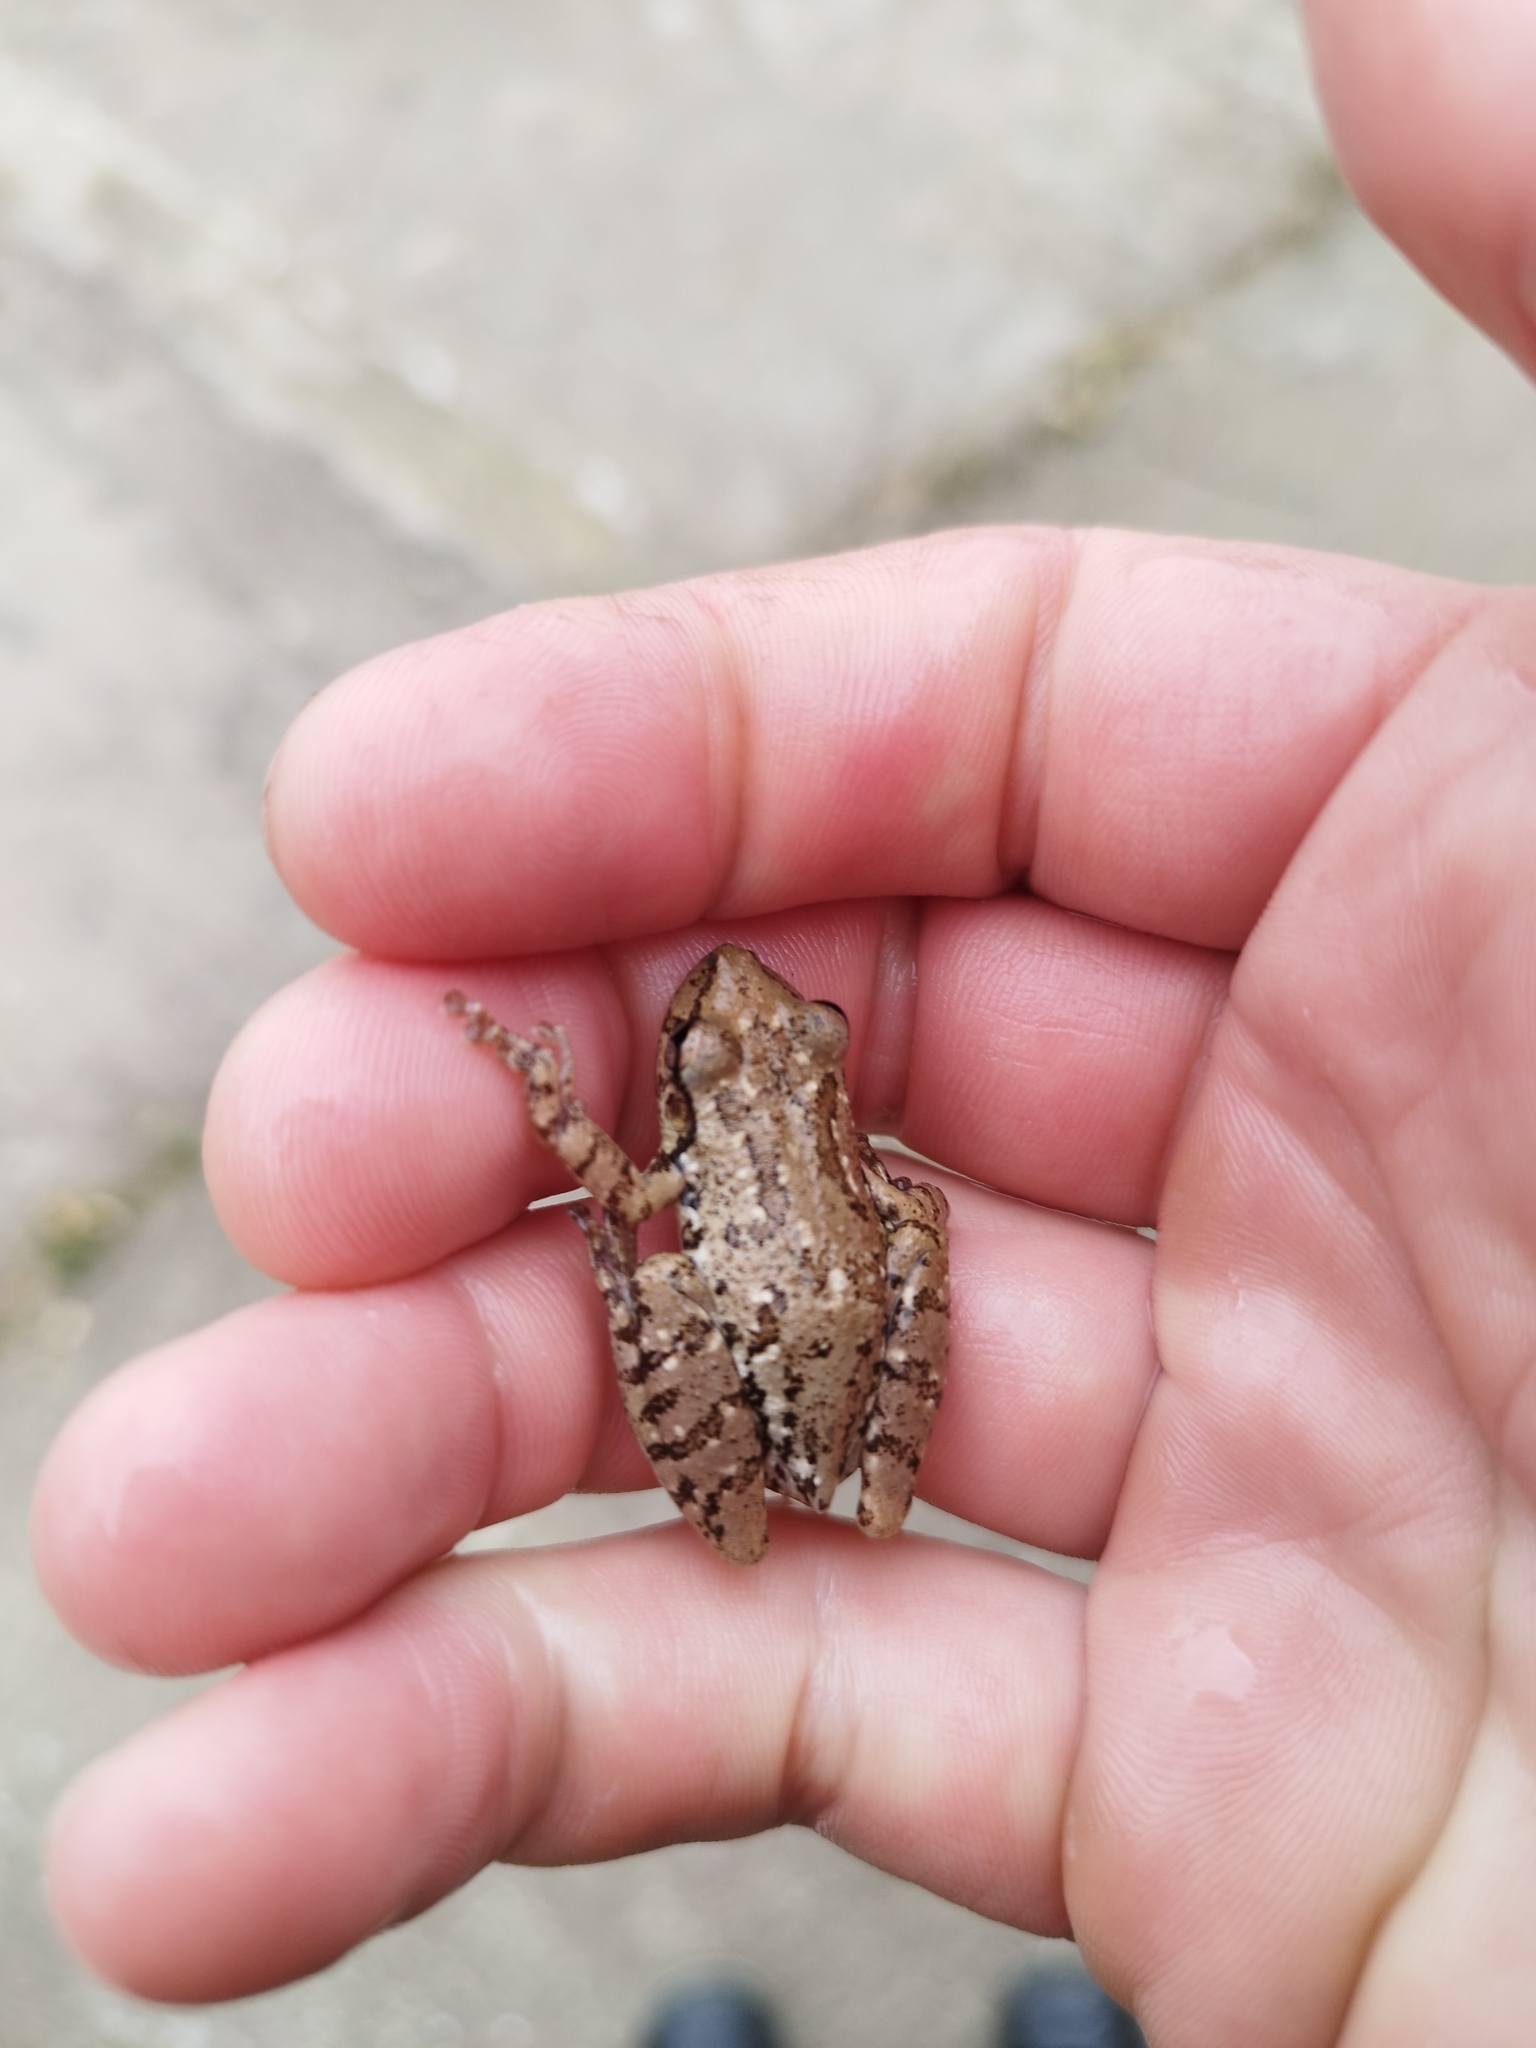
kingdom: Animalia
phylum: Chordata
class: Amphibia
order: Anura
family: Hylidae
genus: Scinax
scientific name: Scinax granulatus
